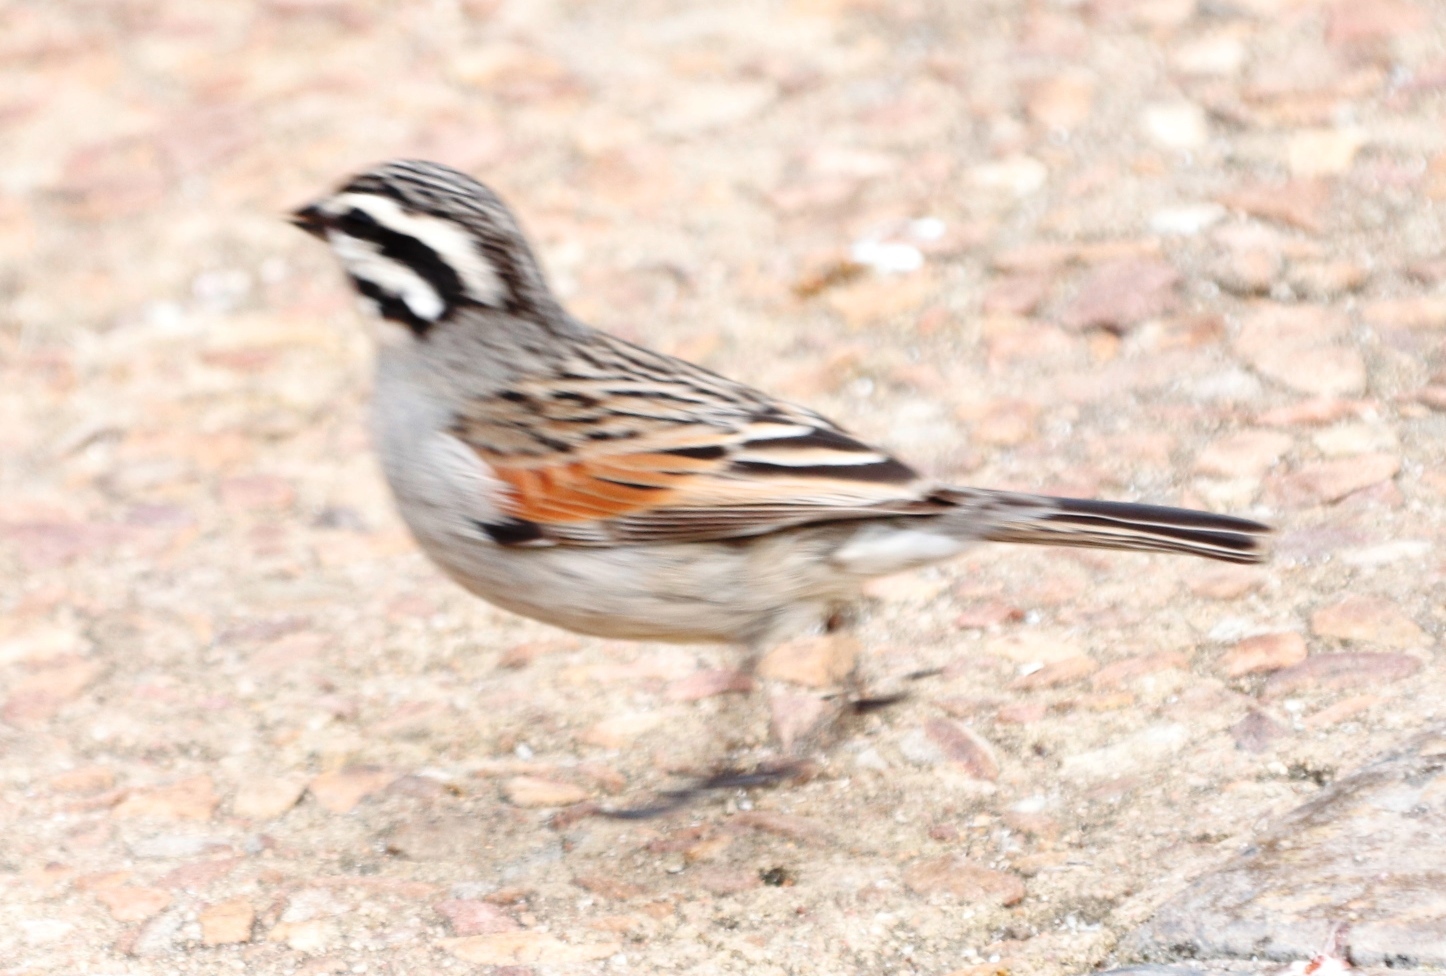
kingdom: Animalia
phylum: Chordata
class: Aves
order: Passeriformes
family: Emberizidae
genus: Emberiza
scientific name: Emberiza capensis
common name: Cape bunting
